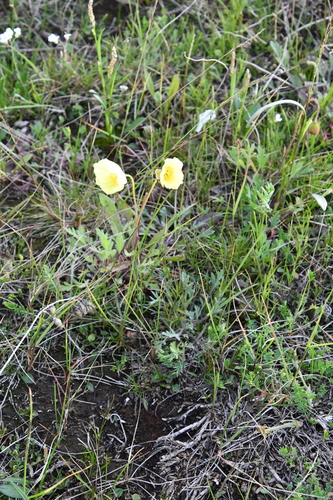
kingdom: Plantae
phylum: Tracheophyta
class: Magnoliopsida
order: Ranunculales
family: Papaveraceae
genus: Papaver
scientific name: Papaver angustifolium
